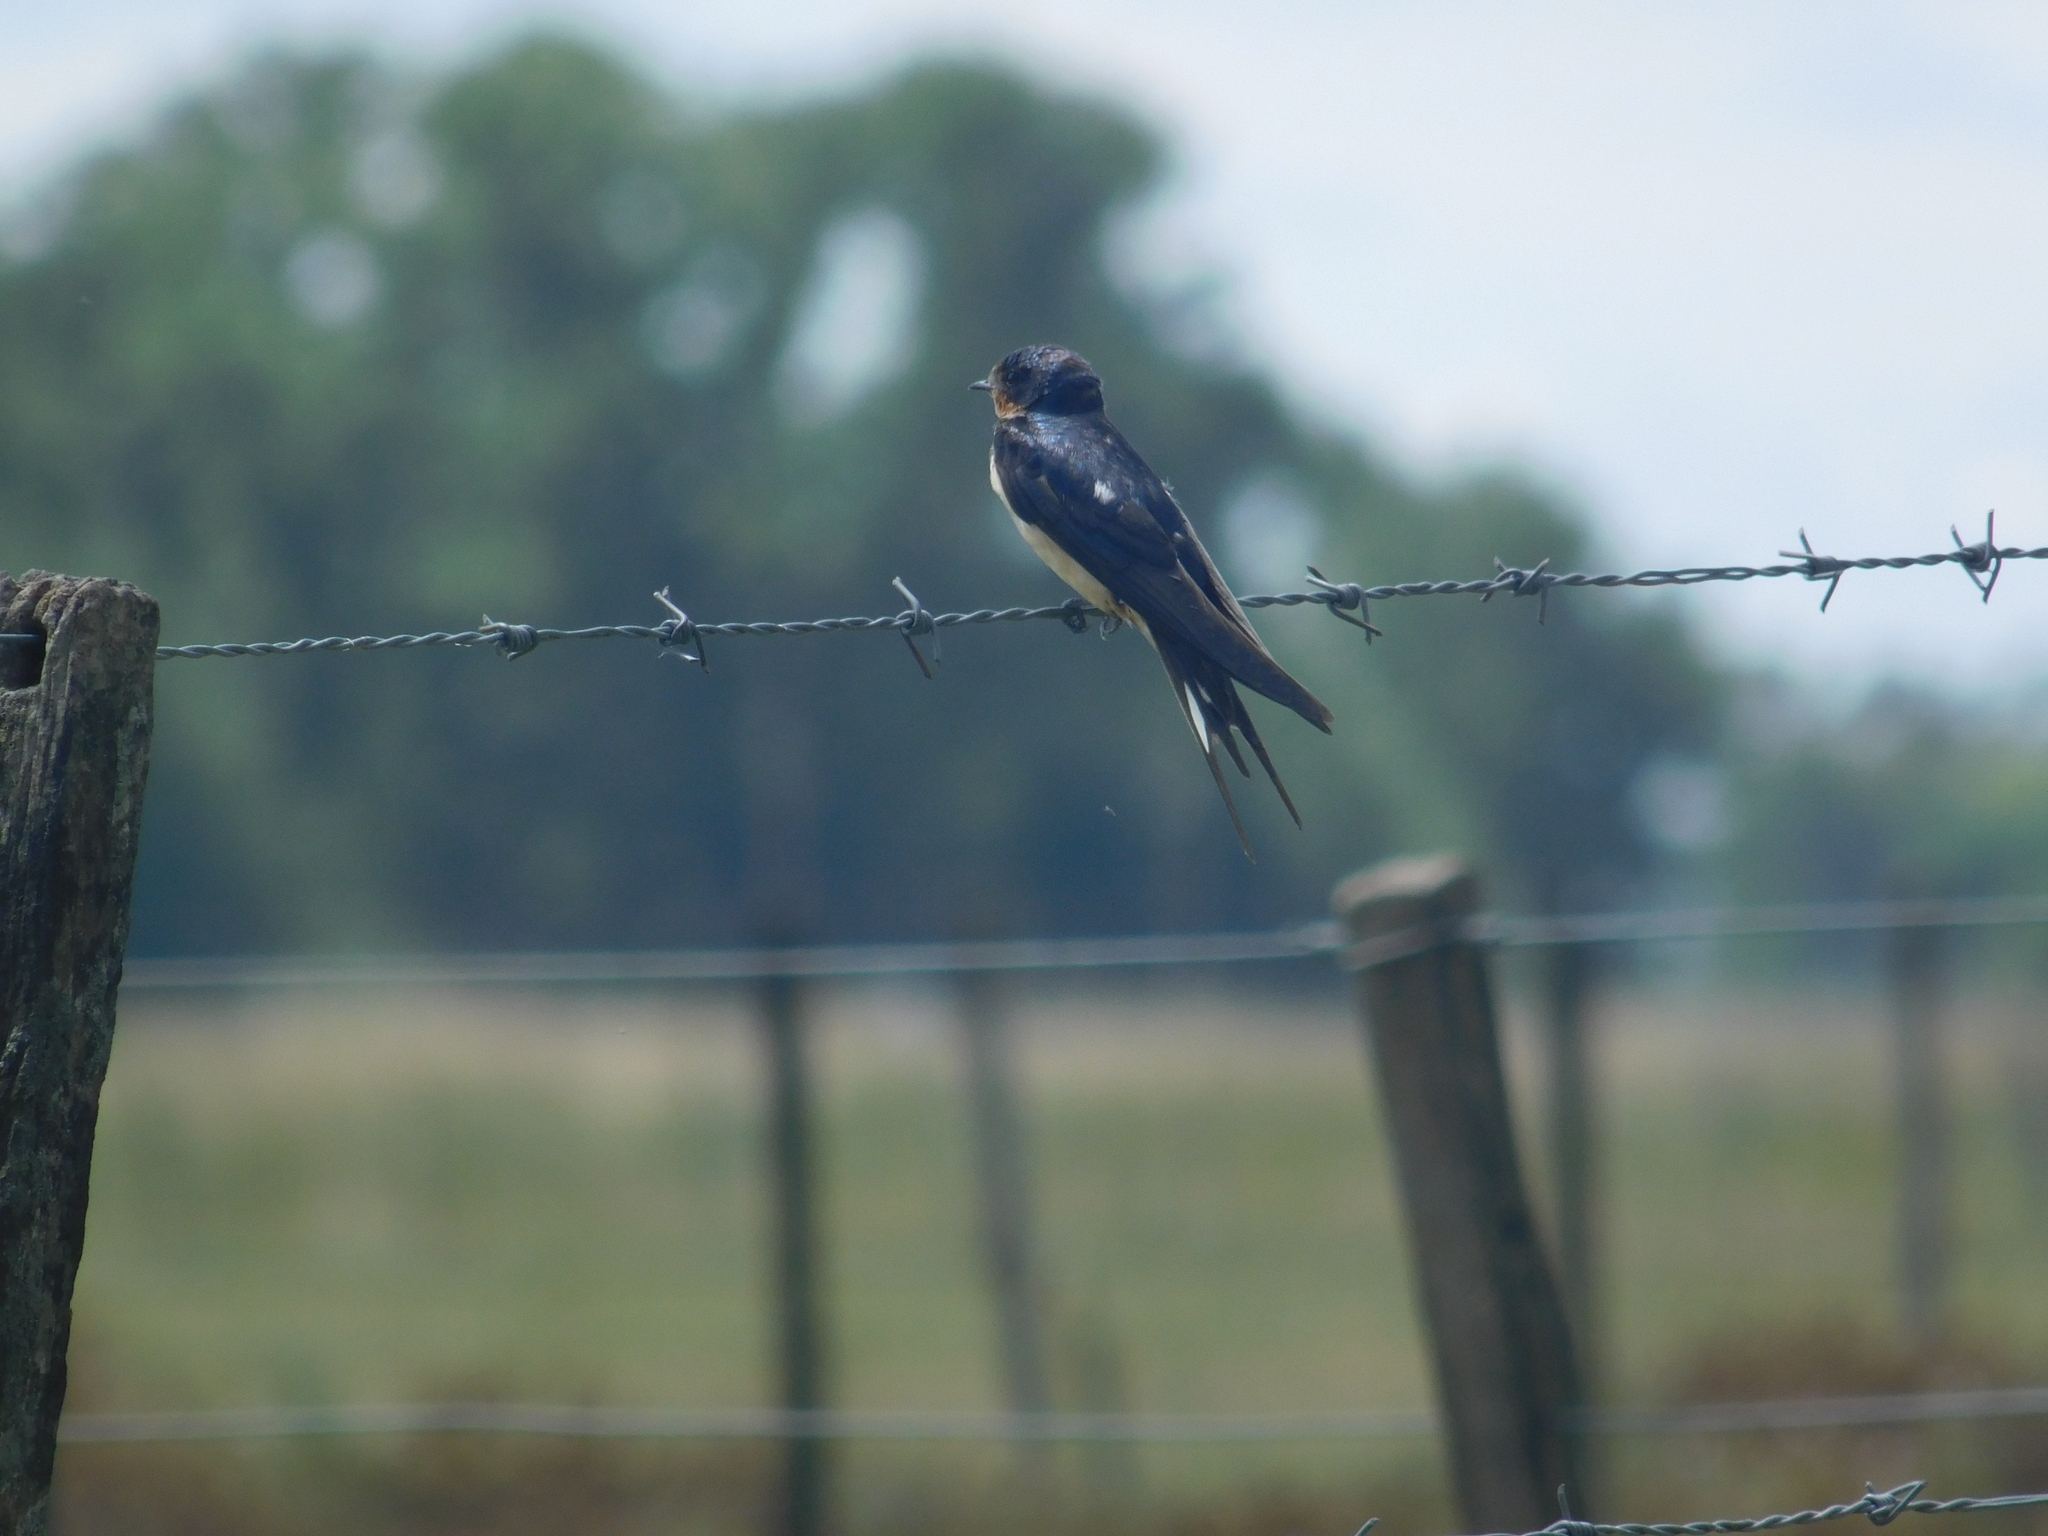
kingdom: Animalia
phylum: Chordata
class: Aves
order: Passeriformes
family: Hirundinidae
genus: Hirundo
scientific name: Hirundo rustica
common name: Barn swallow
